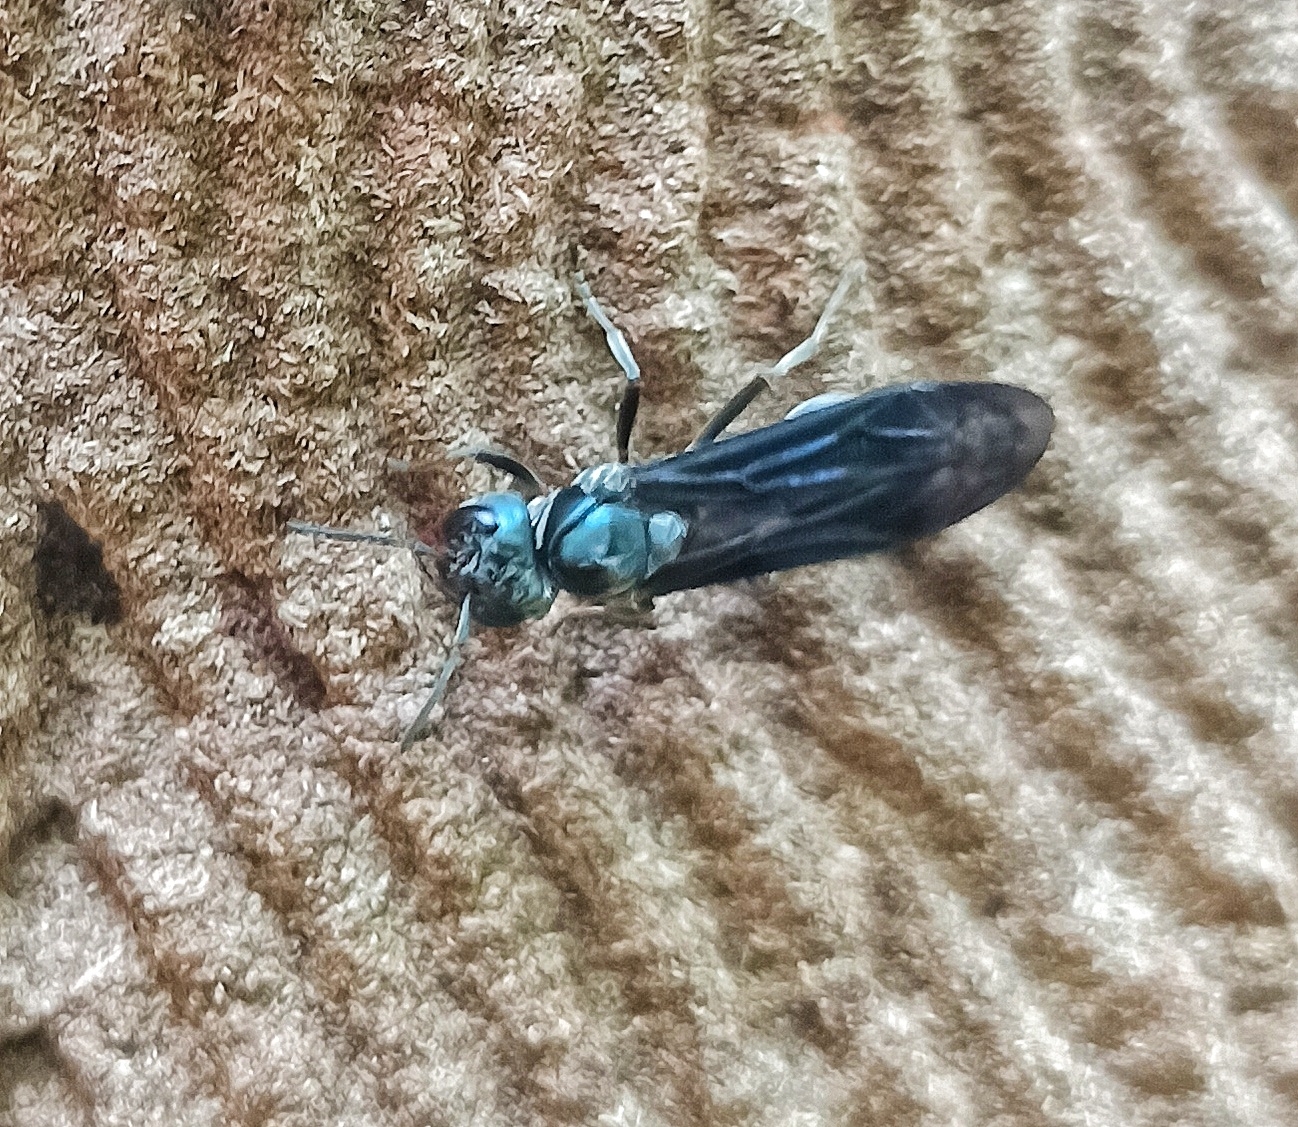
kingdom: Animalia
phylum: Arthropoda
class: Insecta
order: Hymenoptera
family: Vespidae
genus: Synoeca
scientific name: Synoeca septentrionalis
